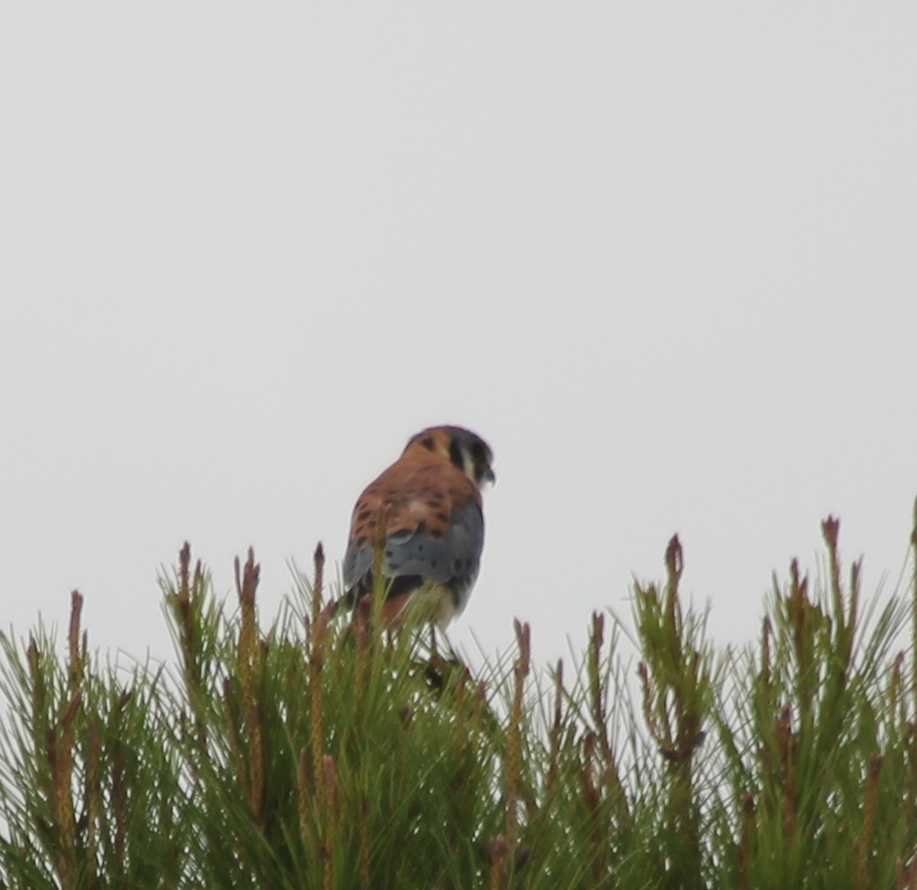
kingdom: Animalia
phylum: Chordata
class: Aves
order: Falconiformes
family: Falconidae
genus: Falco
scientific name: Falco sparverius
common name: American kestrel
